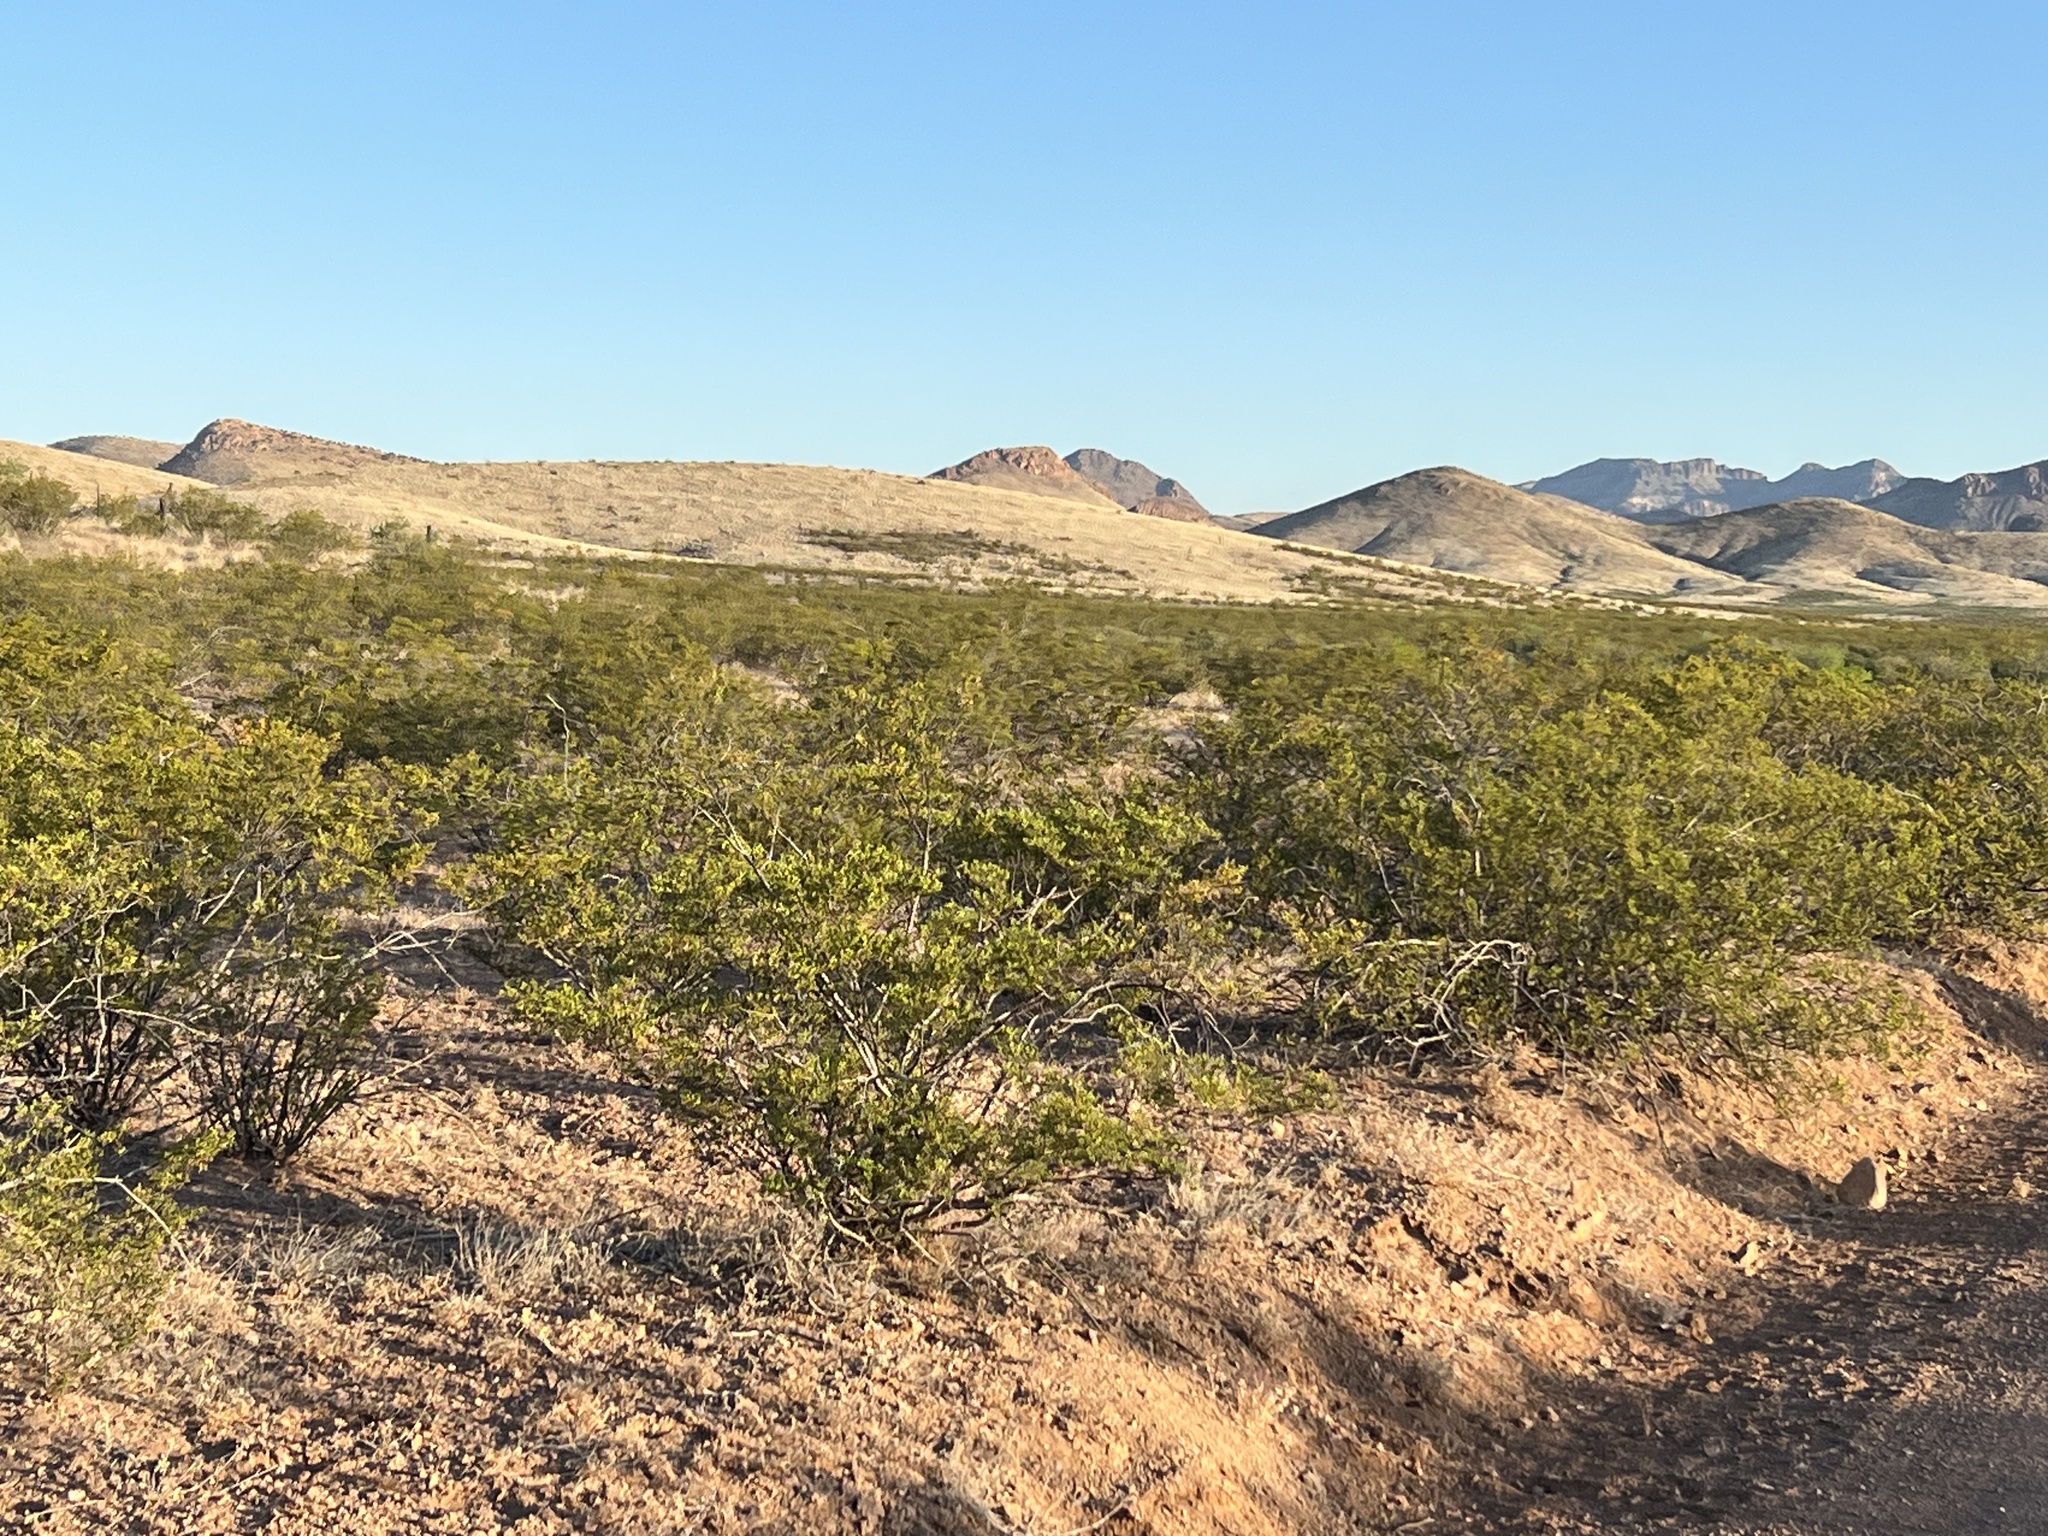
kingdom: Plantae
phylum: Tracheophyta
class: Magnoliopsida
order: Zygophyllales
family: Zygophyllaceae
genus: Larrea
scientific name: Larrea tridentata
